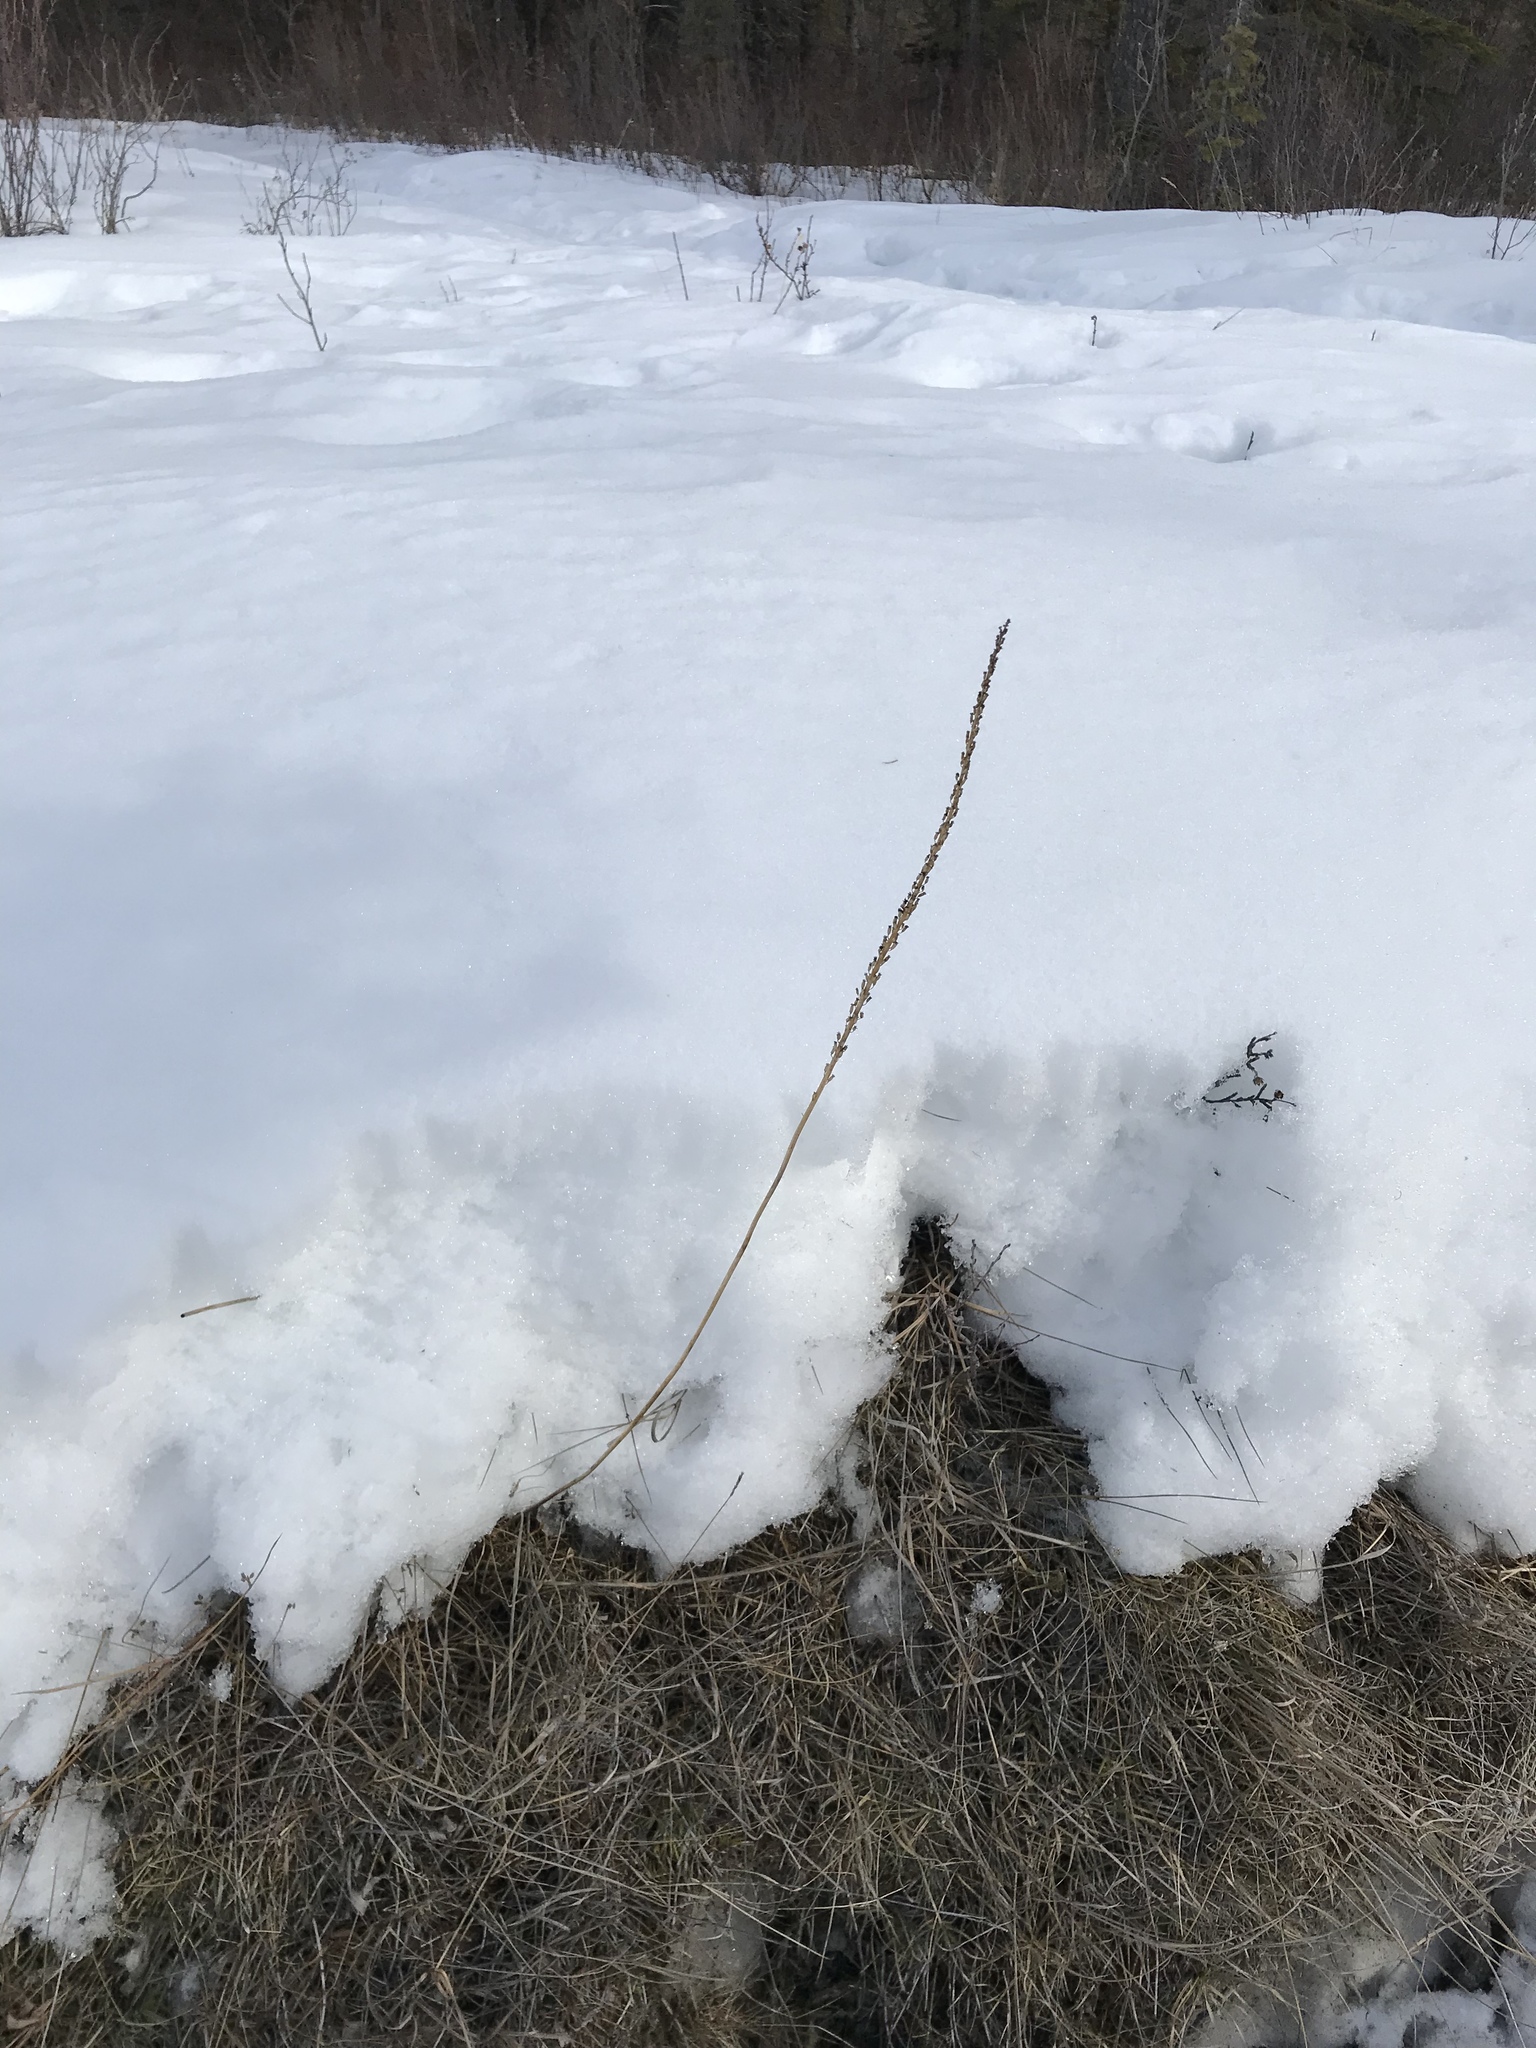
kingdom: Plantae
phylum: Tracheophyta
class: Liliopsida
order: Alismatales
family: Juncaginaceae
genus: Triglochin
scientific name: Triglochin maritima
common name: Sea arrowgrass
